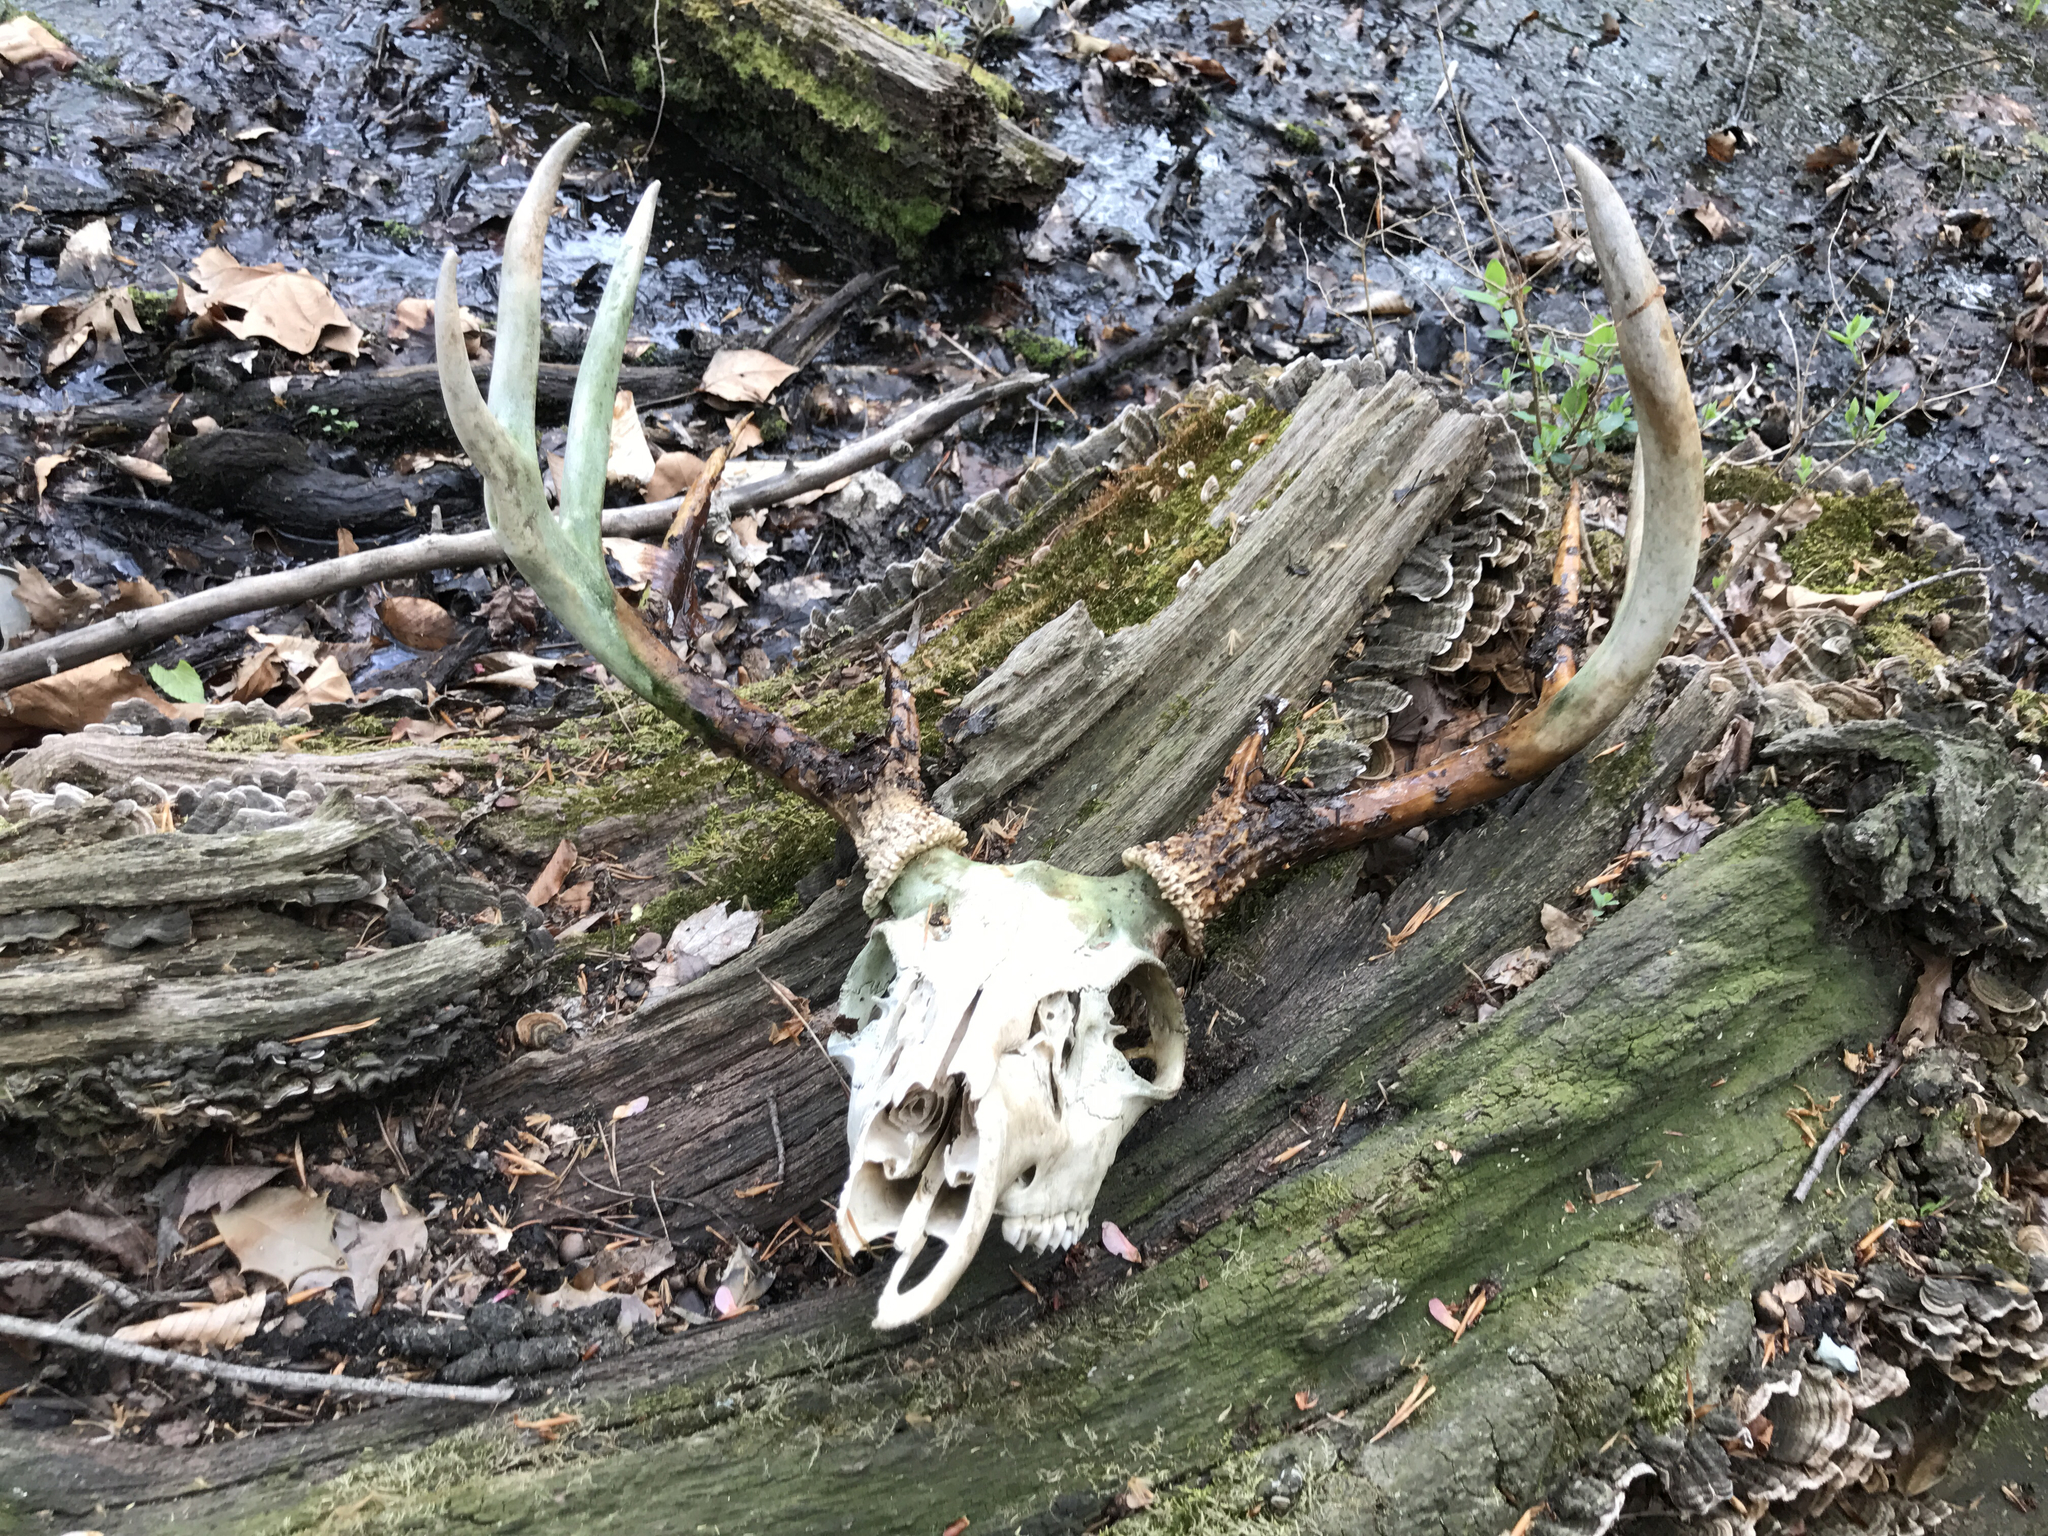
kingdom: Animalia
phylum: Chordata
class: Mammalia
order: Artiodactyla
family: Cervidae
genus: Odocoileus
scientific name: Odocoileus virginianus
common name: White-tailed deer
